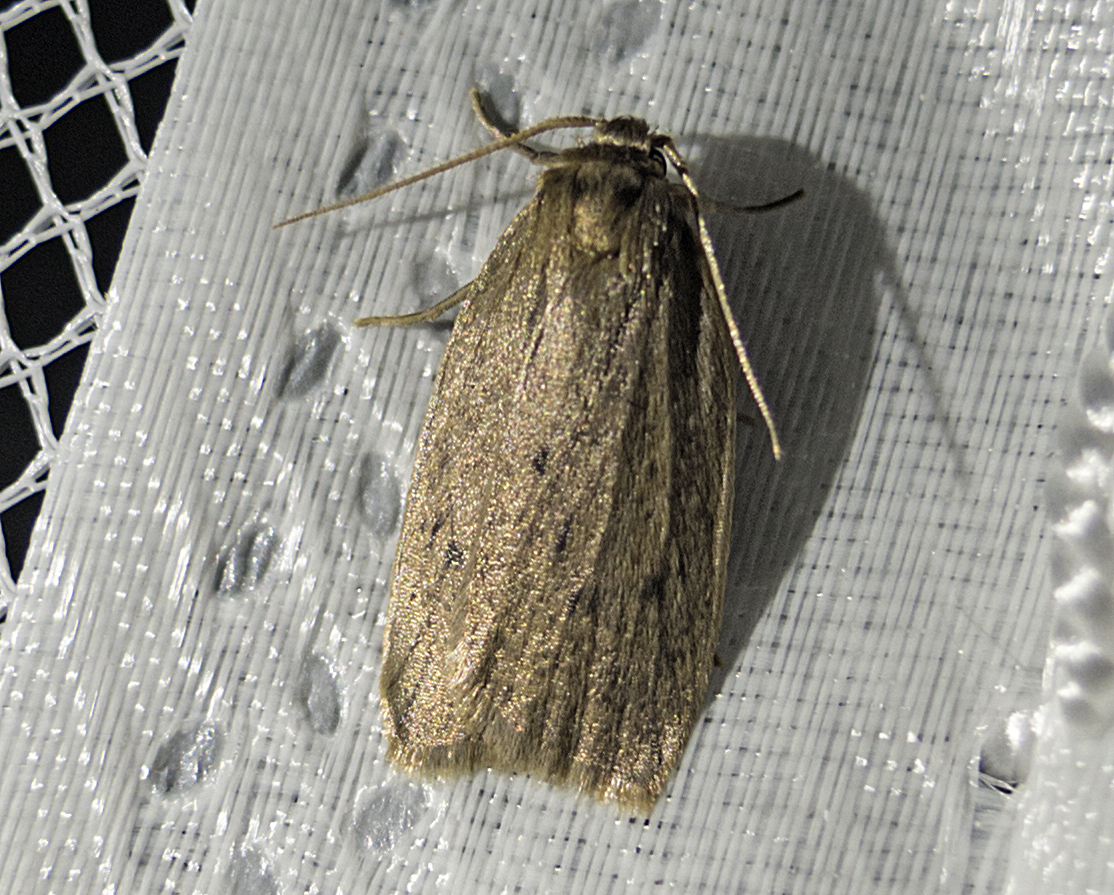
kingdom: Animalia
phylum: Arthropoda
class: Insecta
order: Lepidoptera
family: Erebidae
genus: Pelosia
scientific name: Pelosia obtusa
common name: Small dotted footman
